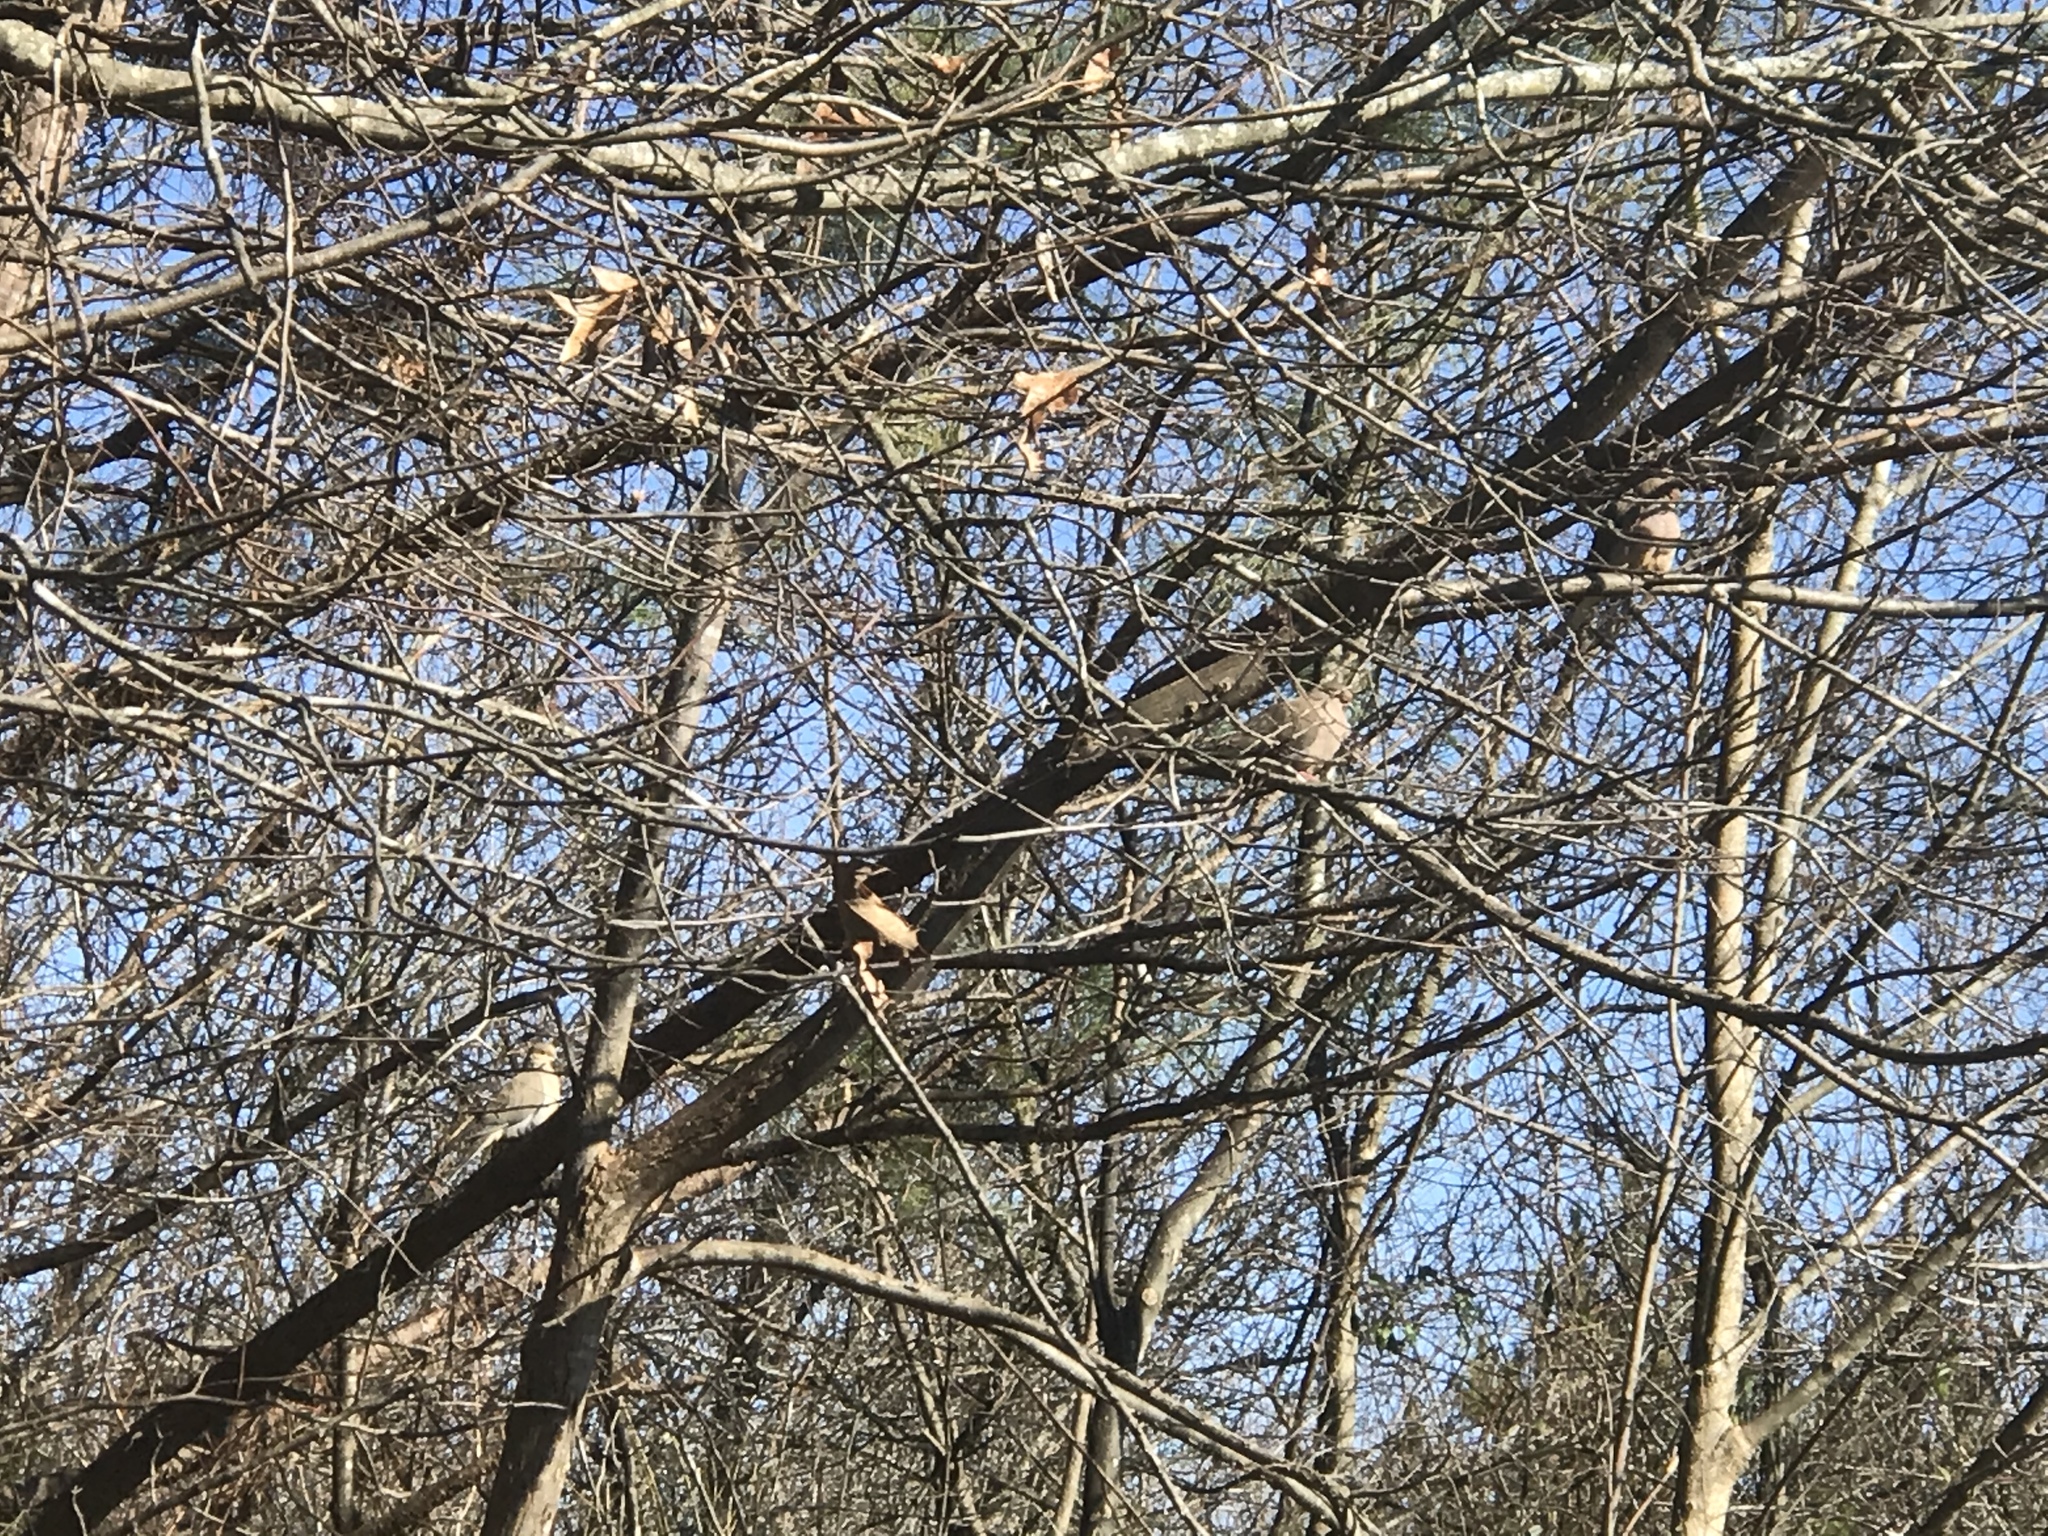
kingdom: Animalia
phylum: Chordata
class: Aves
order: Columbiformes
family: Columbidae
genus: Zenaida
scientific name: Zenaida macroura
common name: Mourning dove
